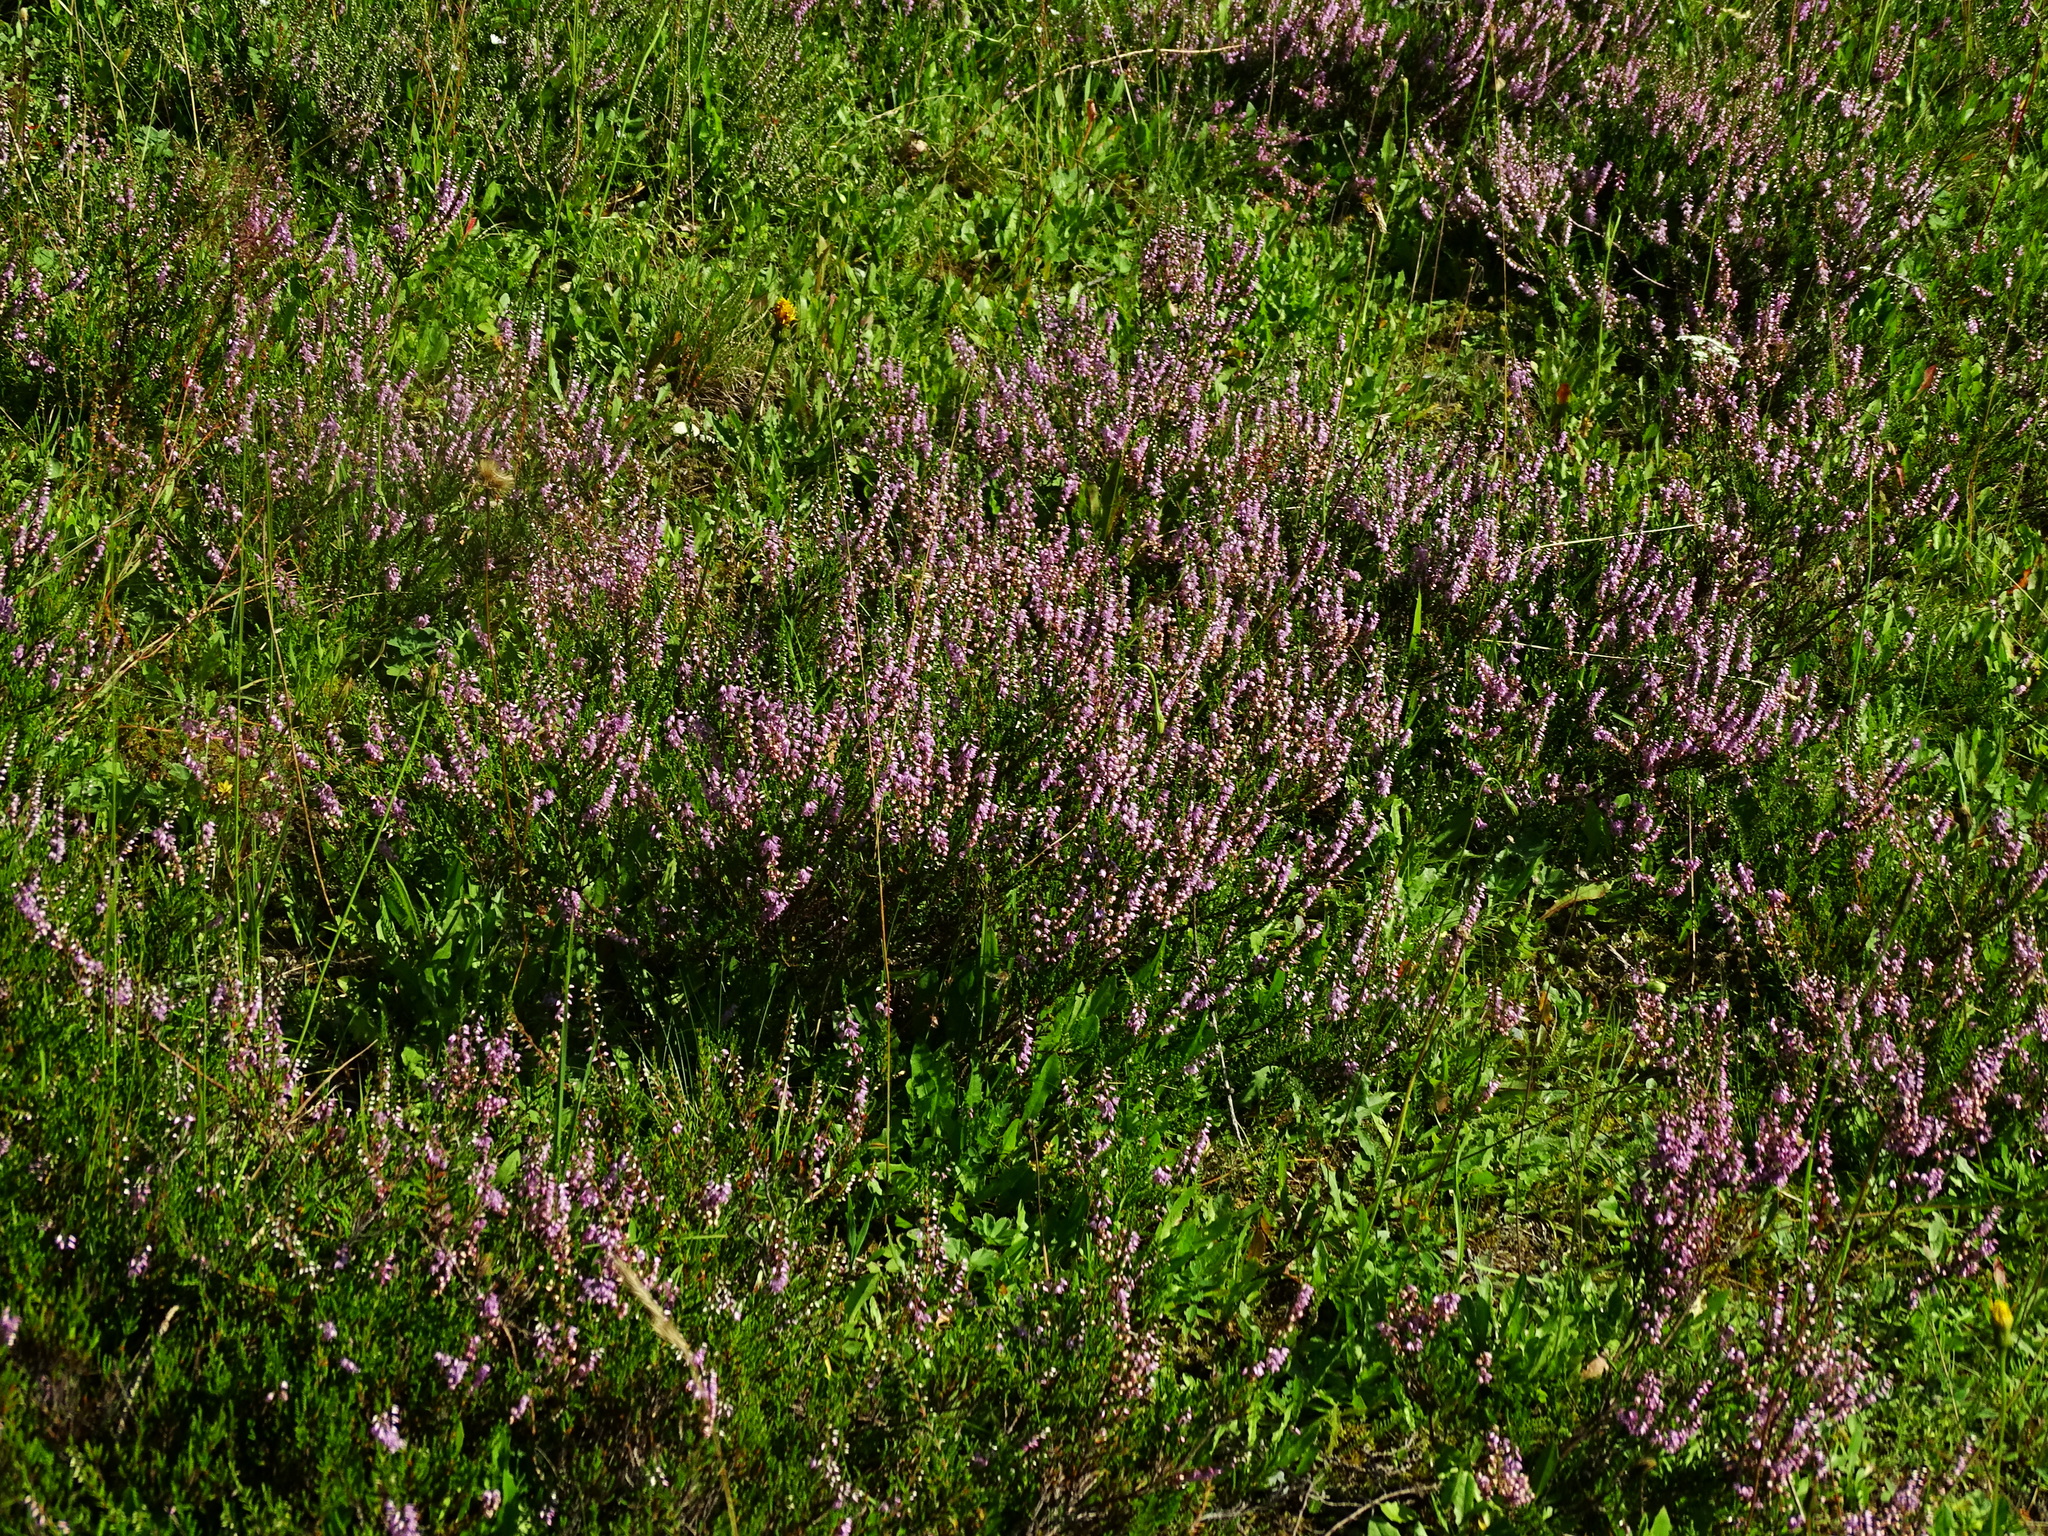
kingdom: Plantae
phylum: Tracheophyta
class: Magnoliopsida
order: Ericales
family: Ericaceae
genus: Calluna
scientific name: Calluna vulgaris
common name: Heather
